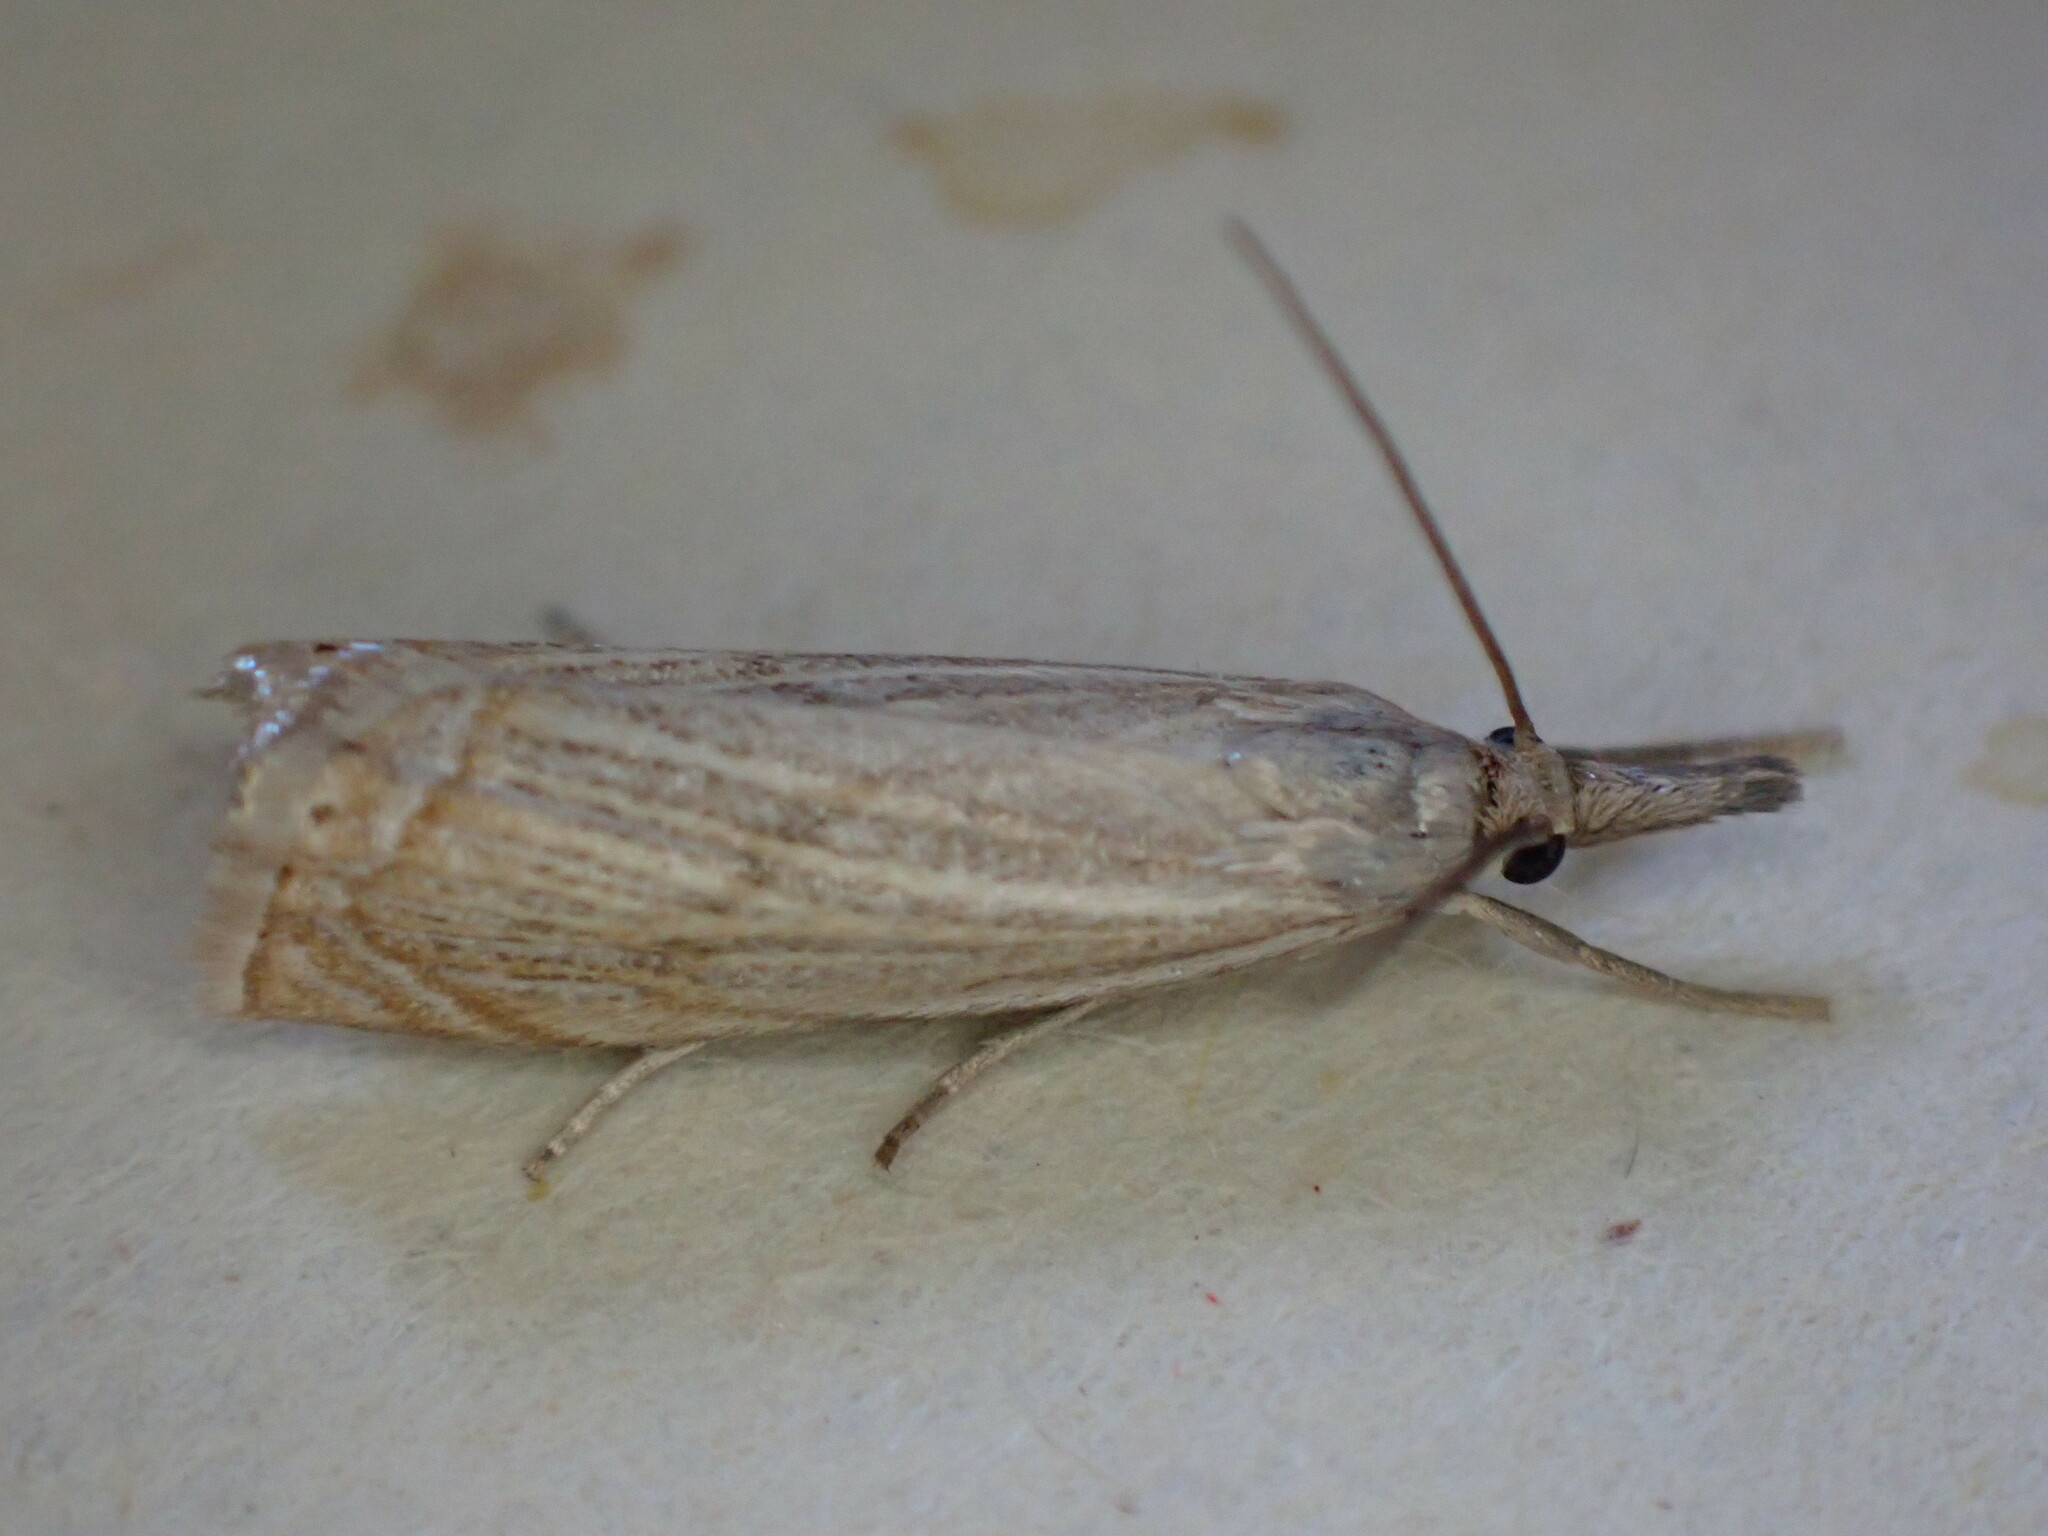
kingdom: Animalia
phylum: Arthropoda
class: Insecta
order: Lepidoptera
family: Crambidae
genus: Chrysoteuchia
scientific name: Chrysoteuchia culmella
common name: Garden grass-veneer
